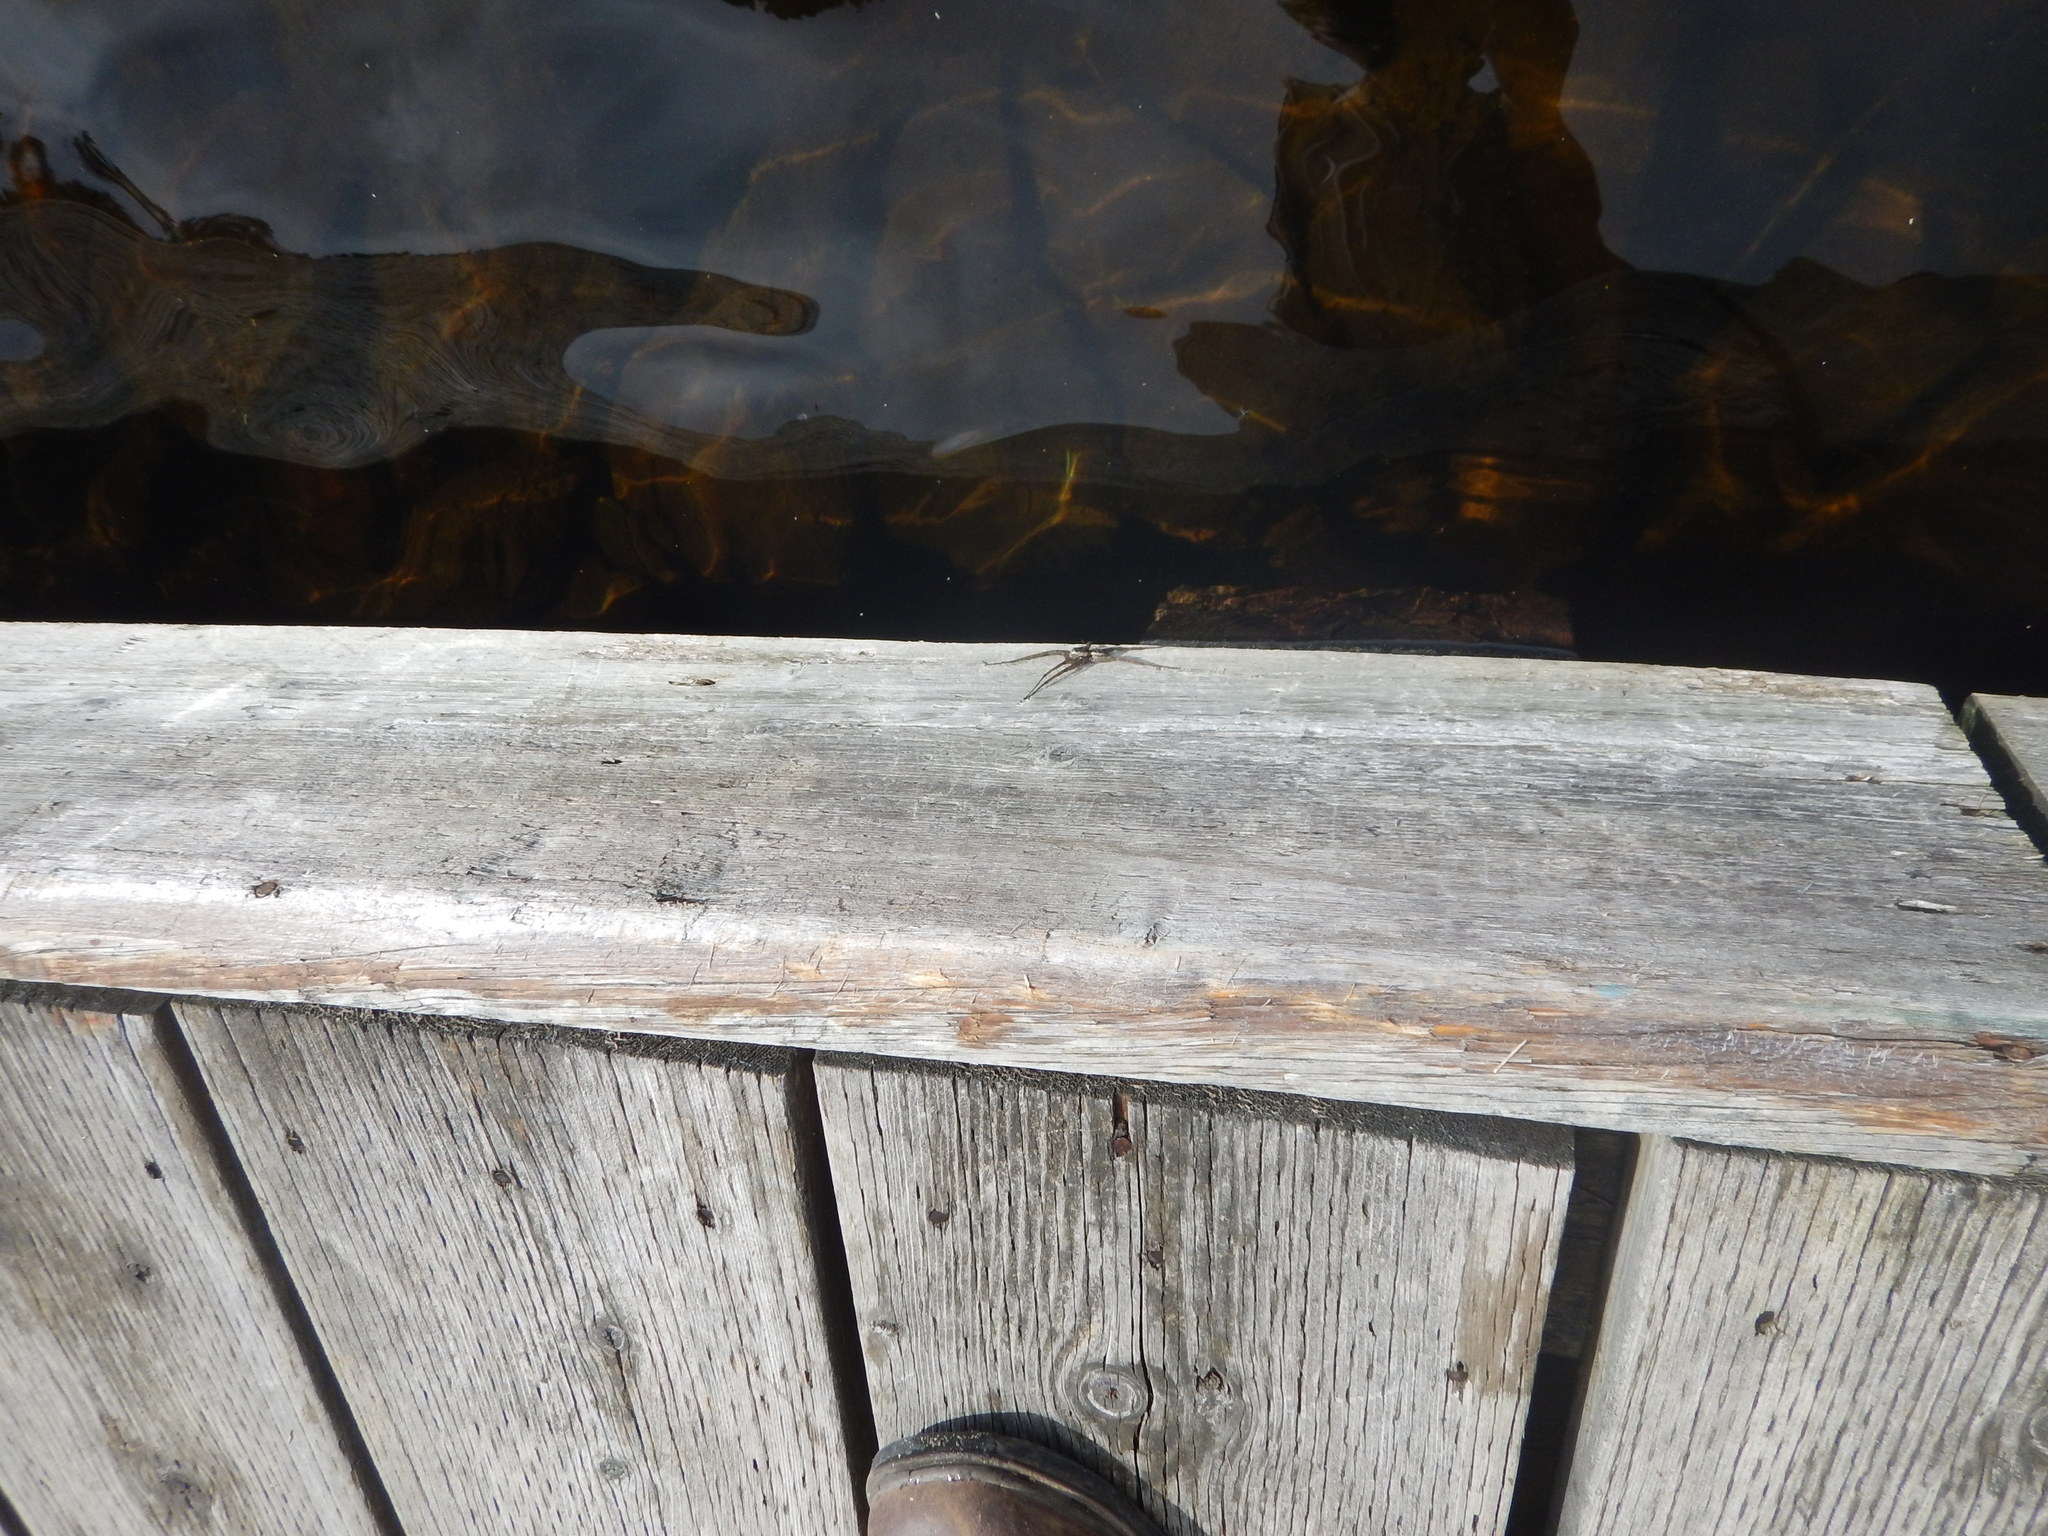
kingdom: Animalia
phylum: Arthropoda
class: Arachnida
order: Araneae
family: Pisauridae
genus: Dolomedes
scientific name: Dolomedes scriptus
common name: Striped fishing spider
